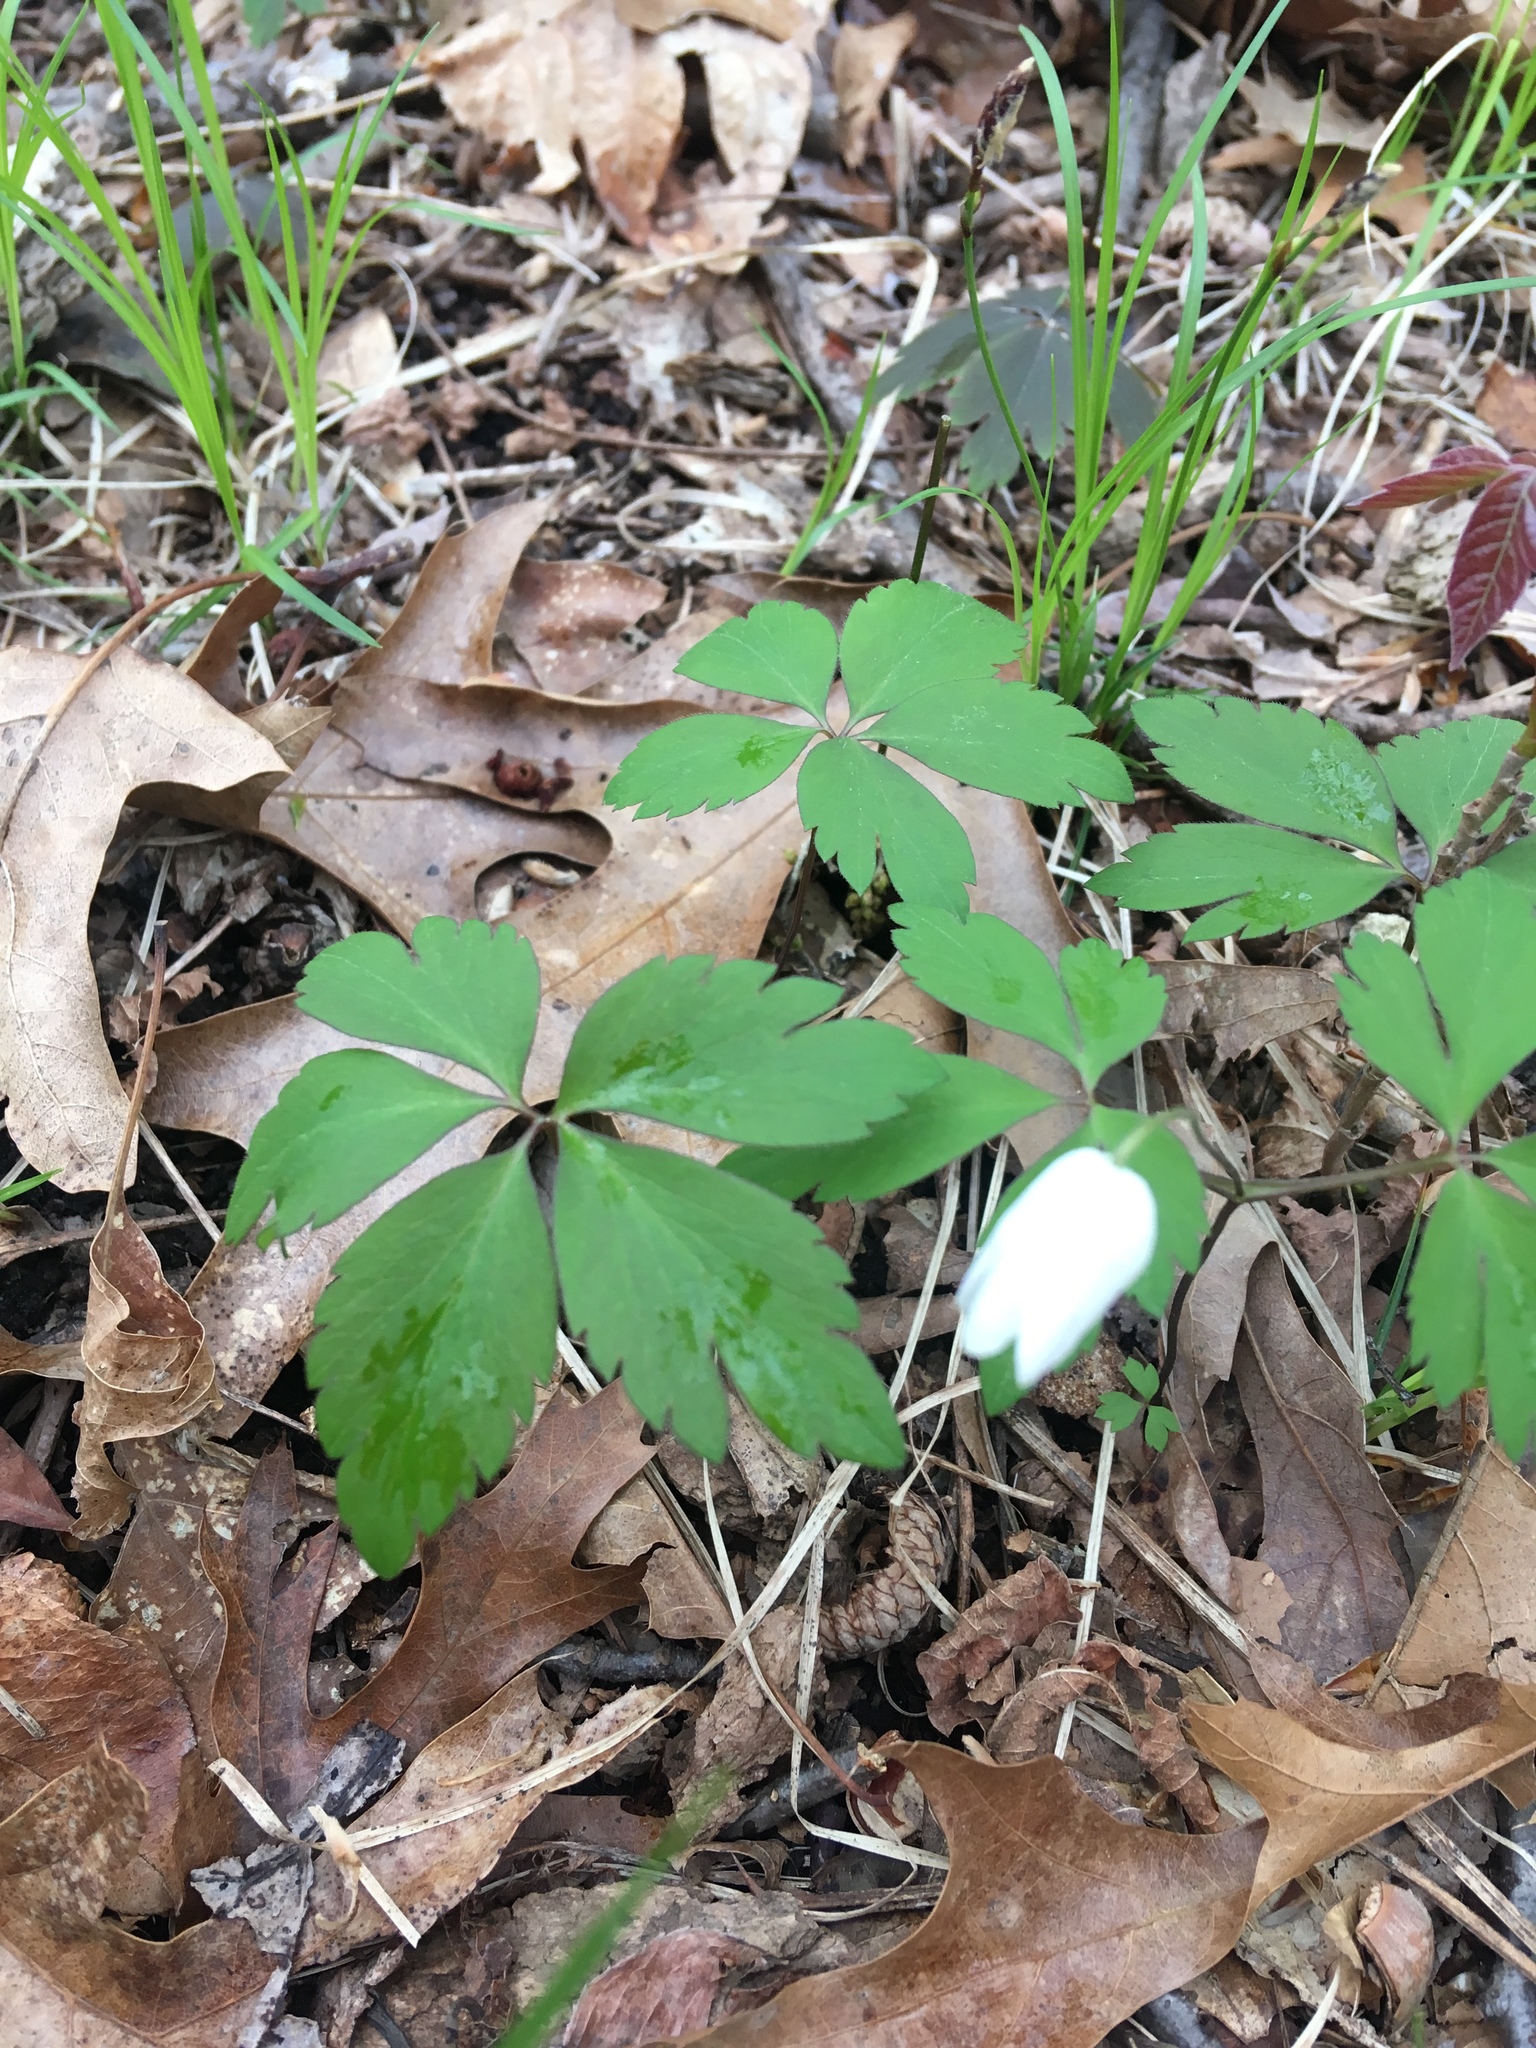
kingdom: Plantae
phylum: Tracheophyta
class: Magnoliopsida
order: Ranunculales
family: Ranunculaceae
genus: Anemone
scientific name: Anemone quinquefolia
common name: Wood anemone
